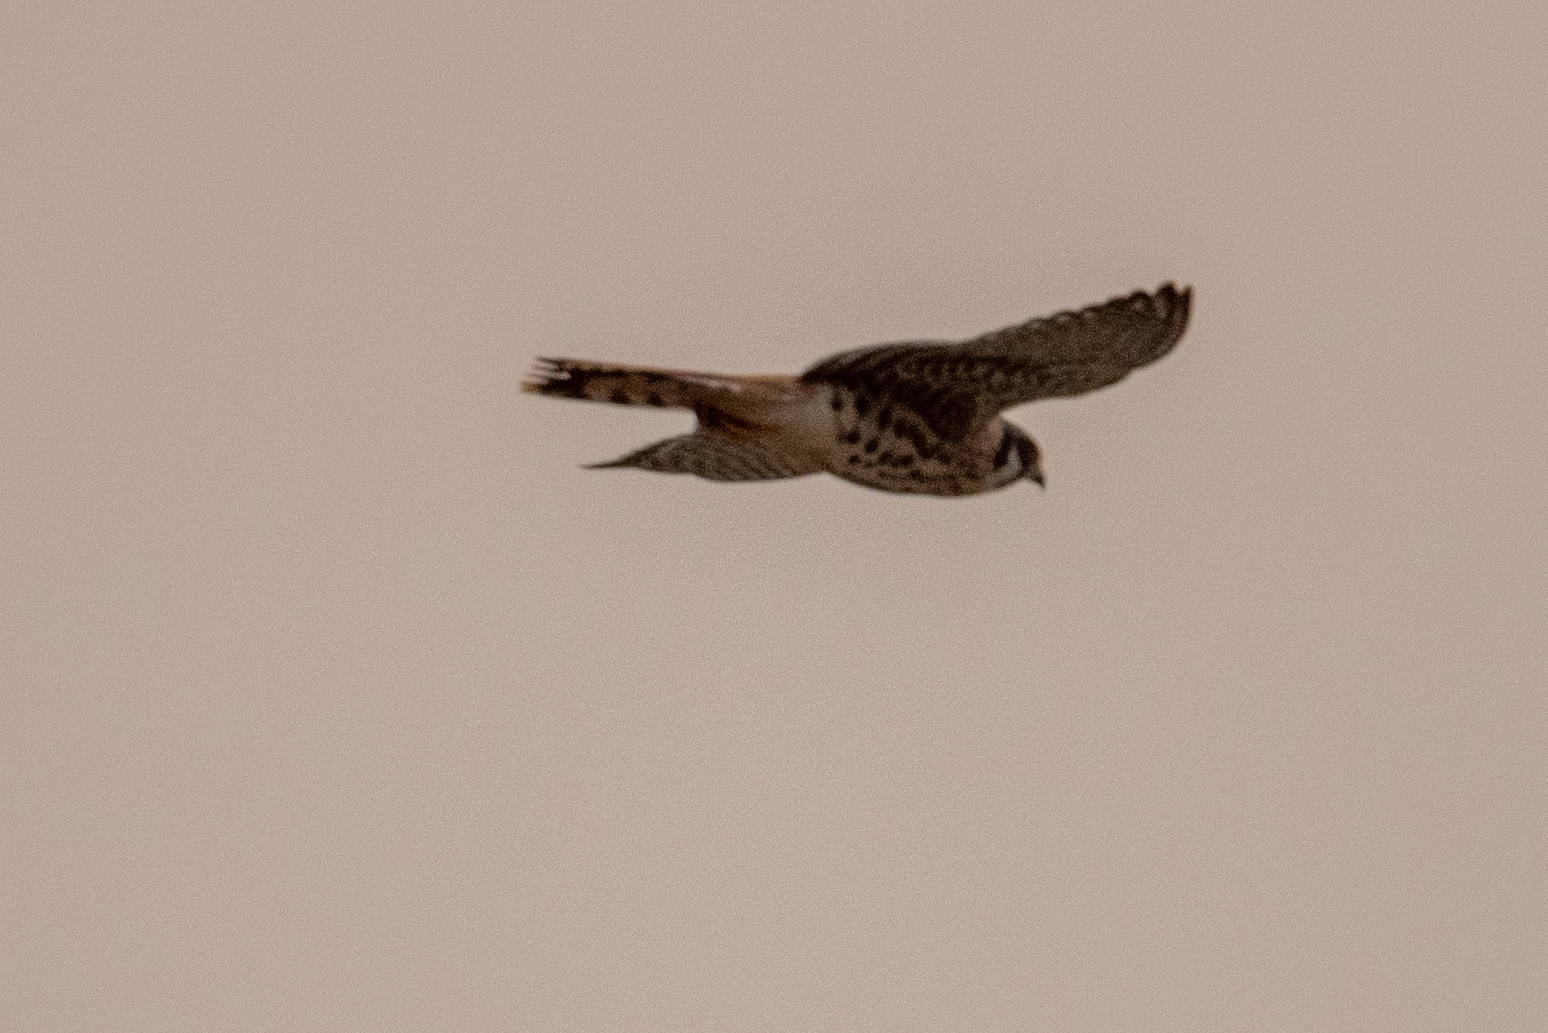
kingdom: Animalia
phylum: Chordata
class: Aves
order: Falconiformes
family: Falconidae
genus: Falco
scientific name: Falco sparverius
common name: American kestrel
